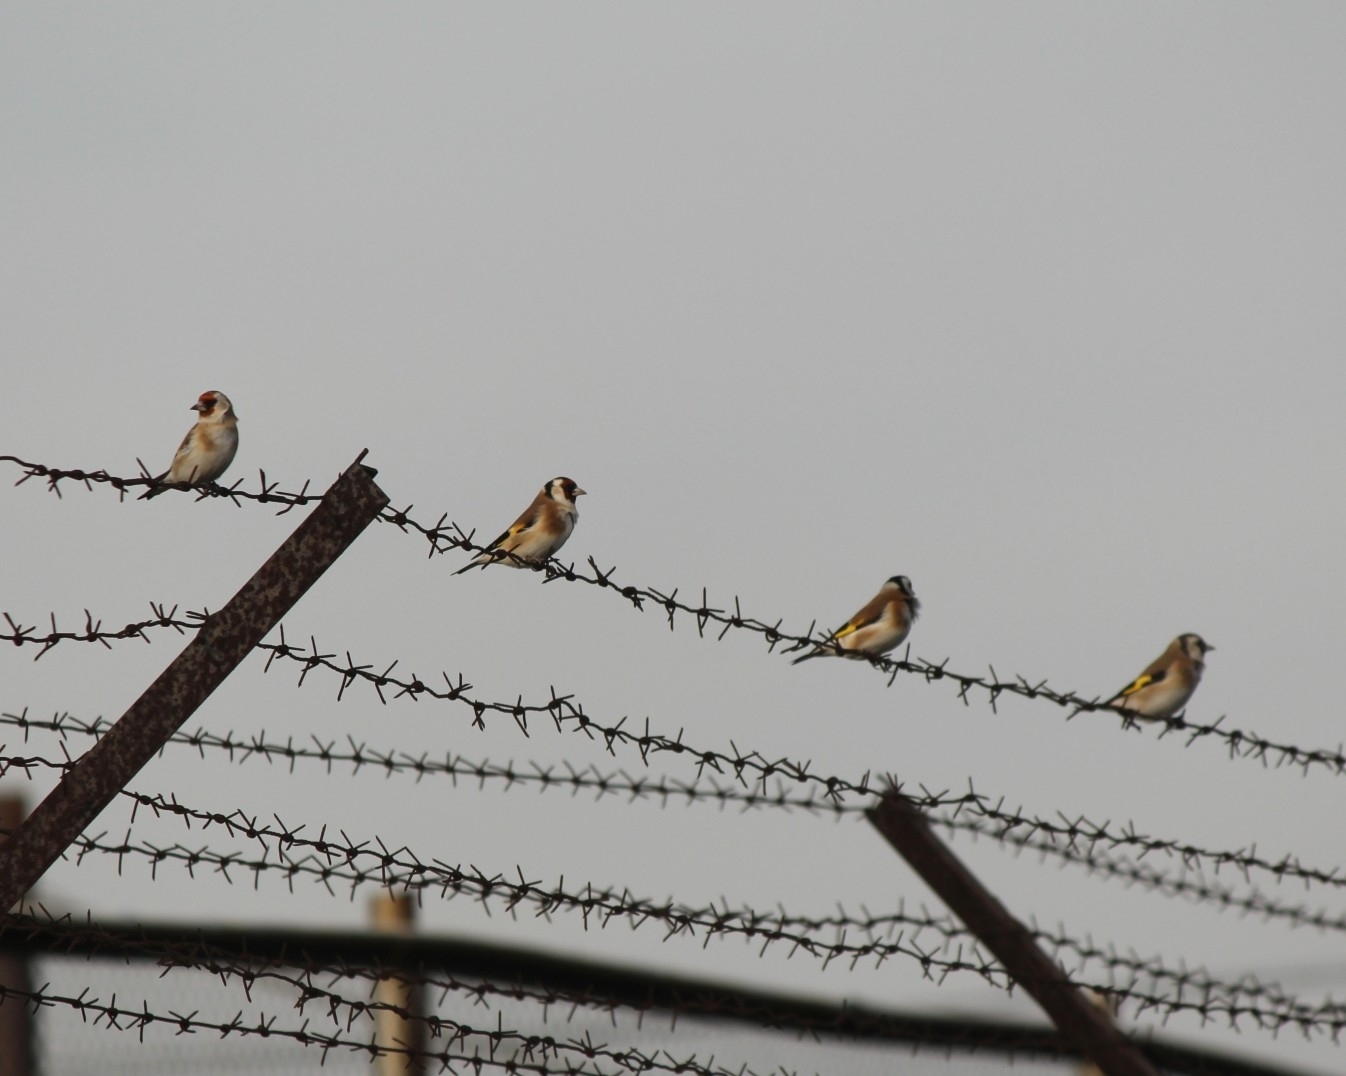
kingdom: Animalia
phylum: Chordata
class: Aves
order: Passeriformes
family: Fringillidae
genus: Carduelis
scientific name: Carduelis carduelis
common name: European goldfinch
